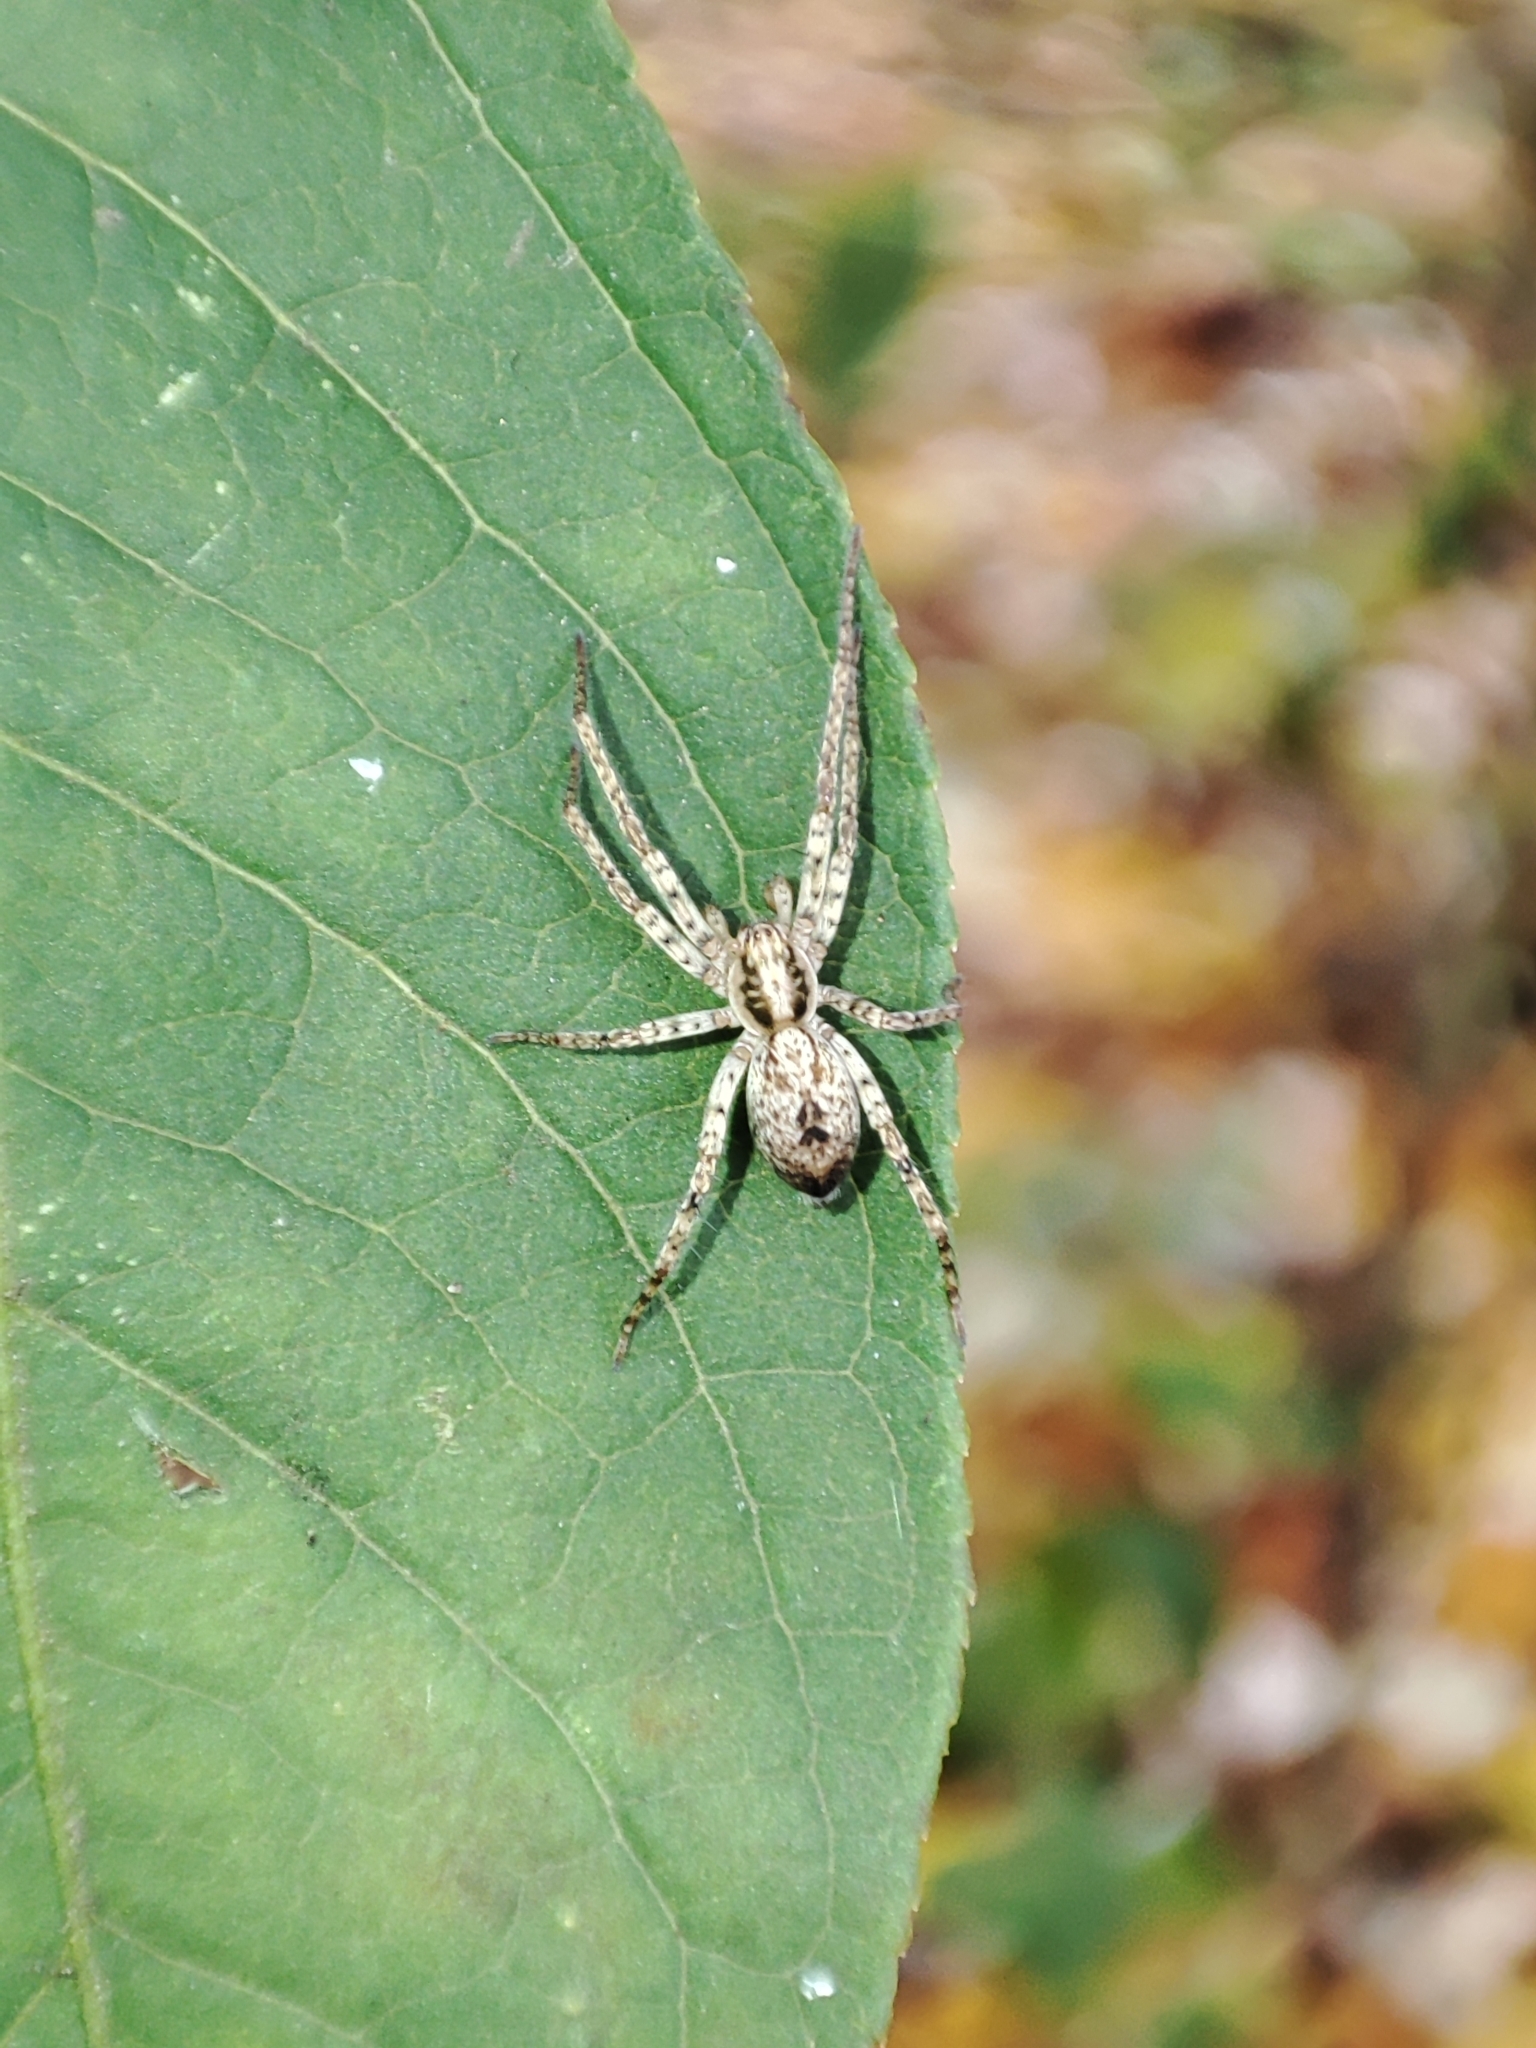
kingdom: Animalia
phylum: Arthropoda
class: Arachnida
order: Araneae
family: Anyphaenidae
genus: Anyphaena
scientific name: Anyphaena accentuata
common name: Buzzing spider
